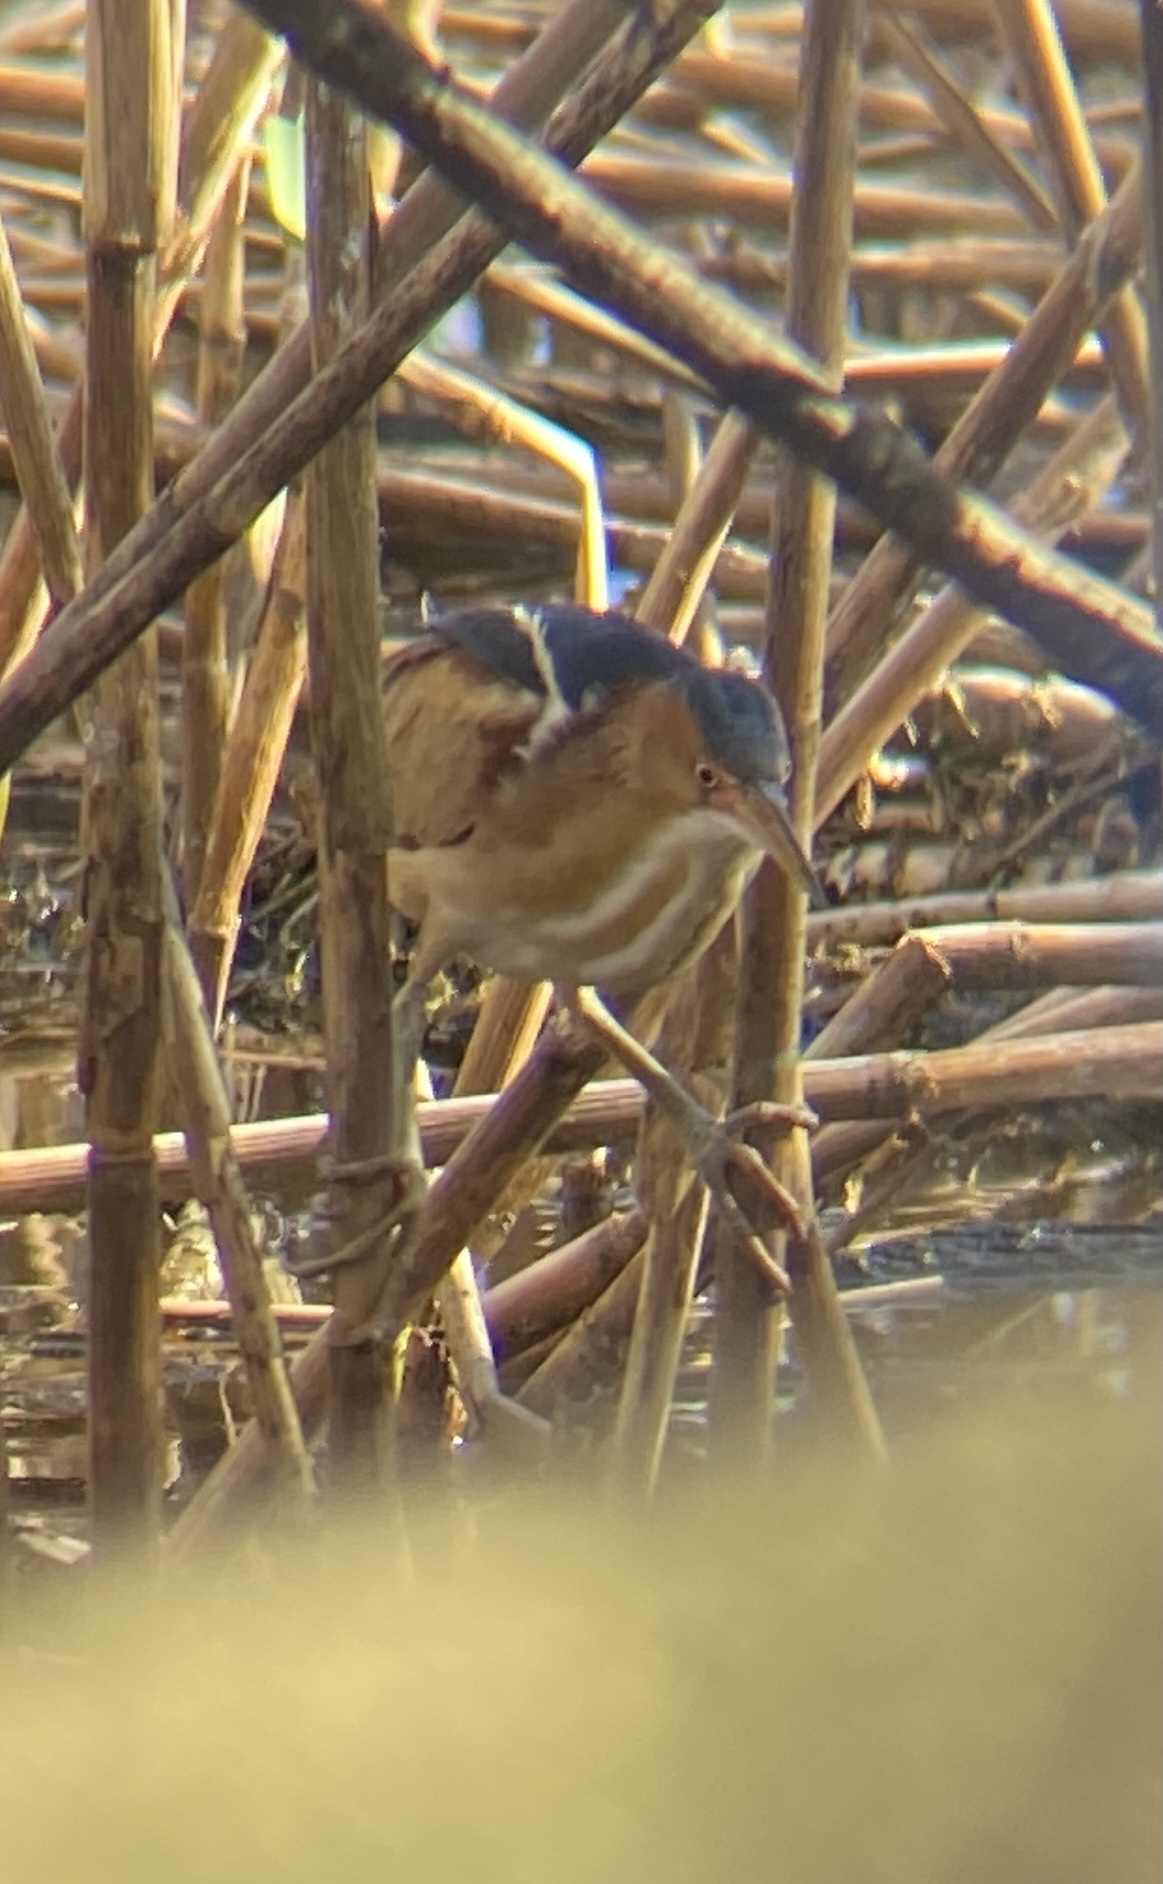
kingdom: Animalia
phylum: Chordata
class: Aves
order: Pelecaniformes
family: Ardeidae
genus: Ixobrychus
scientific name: Ixobrychus exilis
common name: Least bittern
